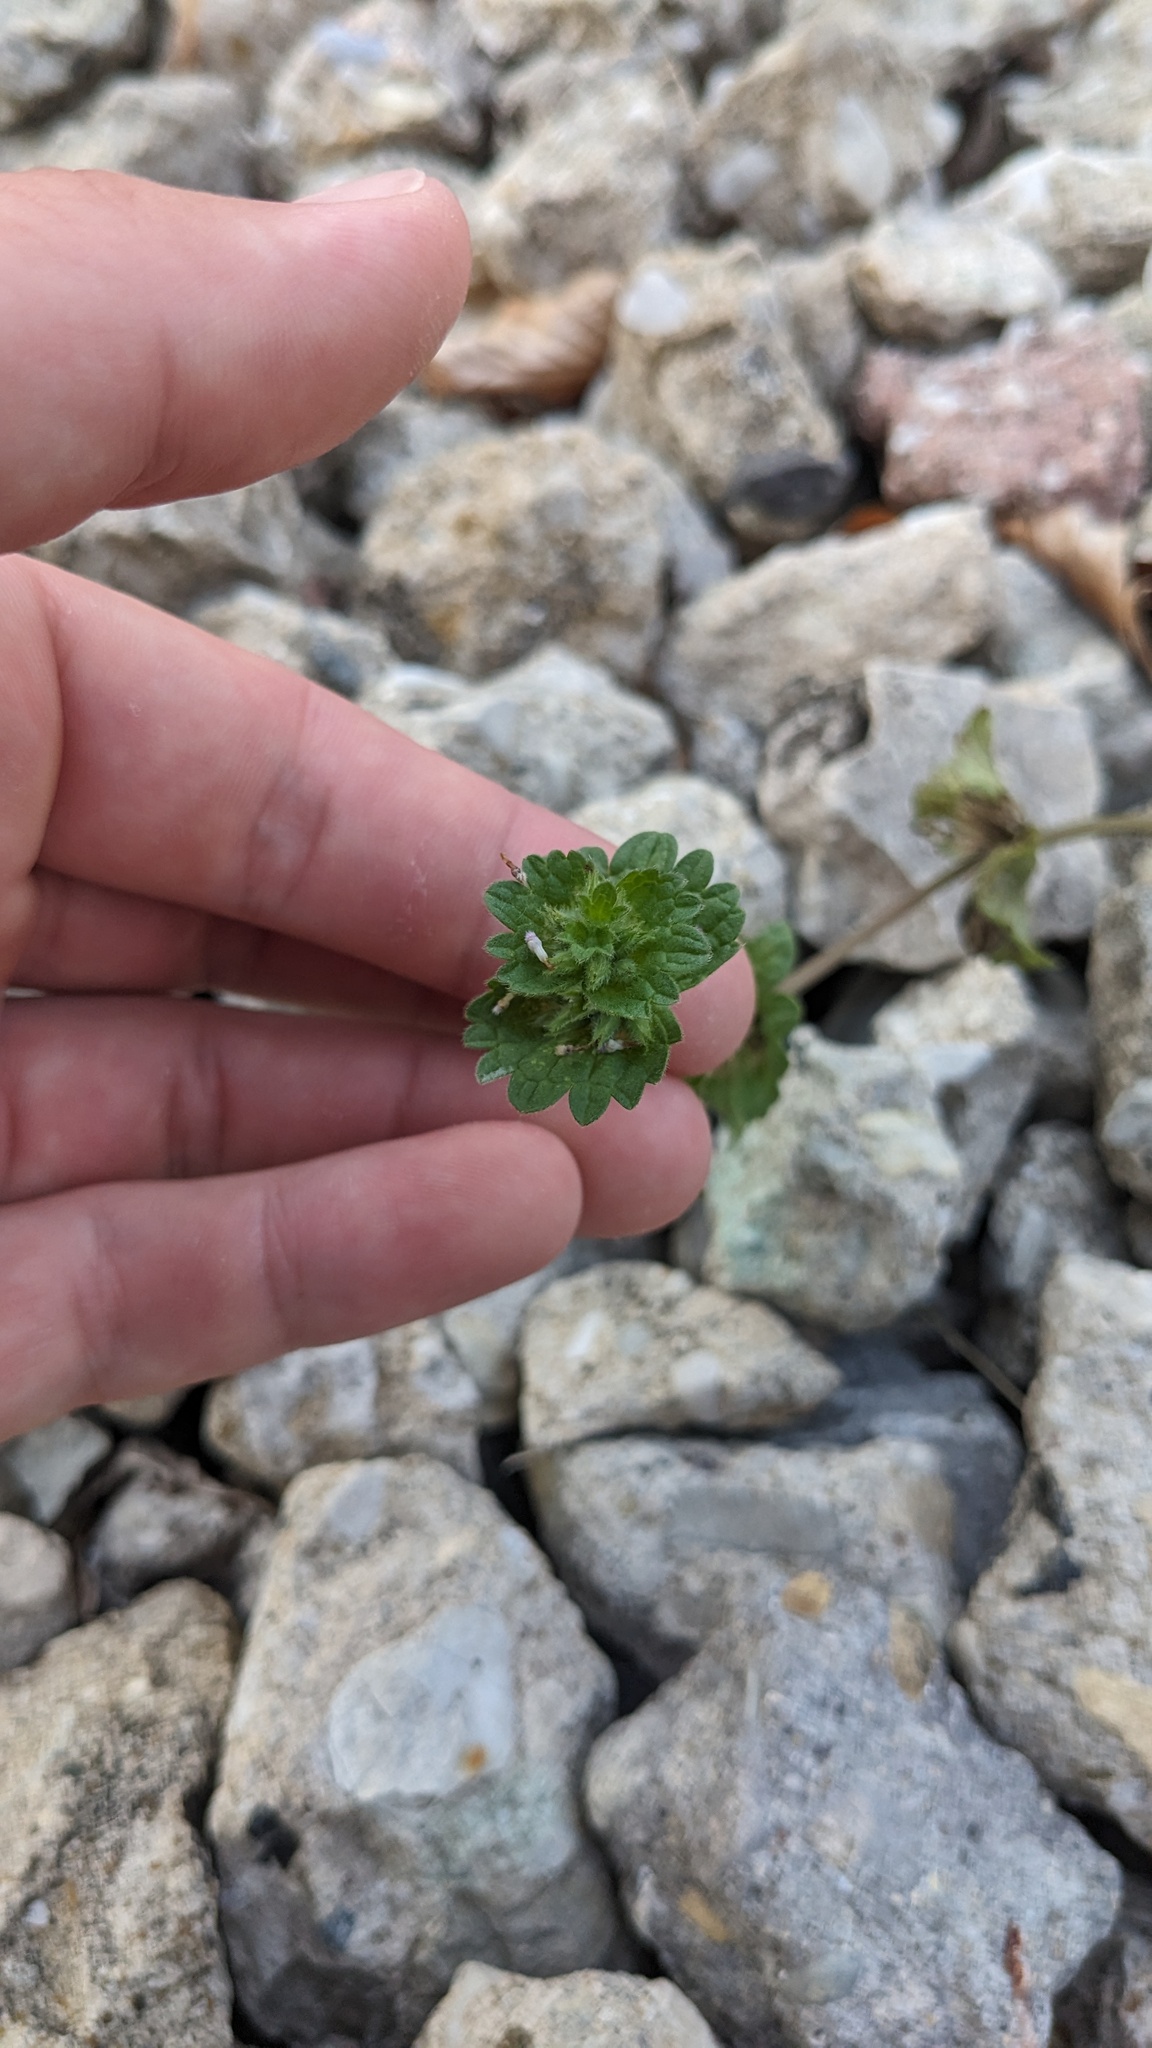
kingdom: Plantae
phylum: Tracheophyta
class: Magnoliopsida
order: Lamiales
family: Lamiaceae
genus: Lamium
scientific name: Lamium amplexicaule
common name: Henbit dead-nettle
